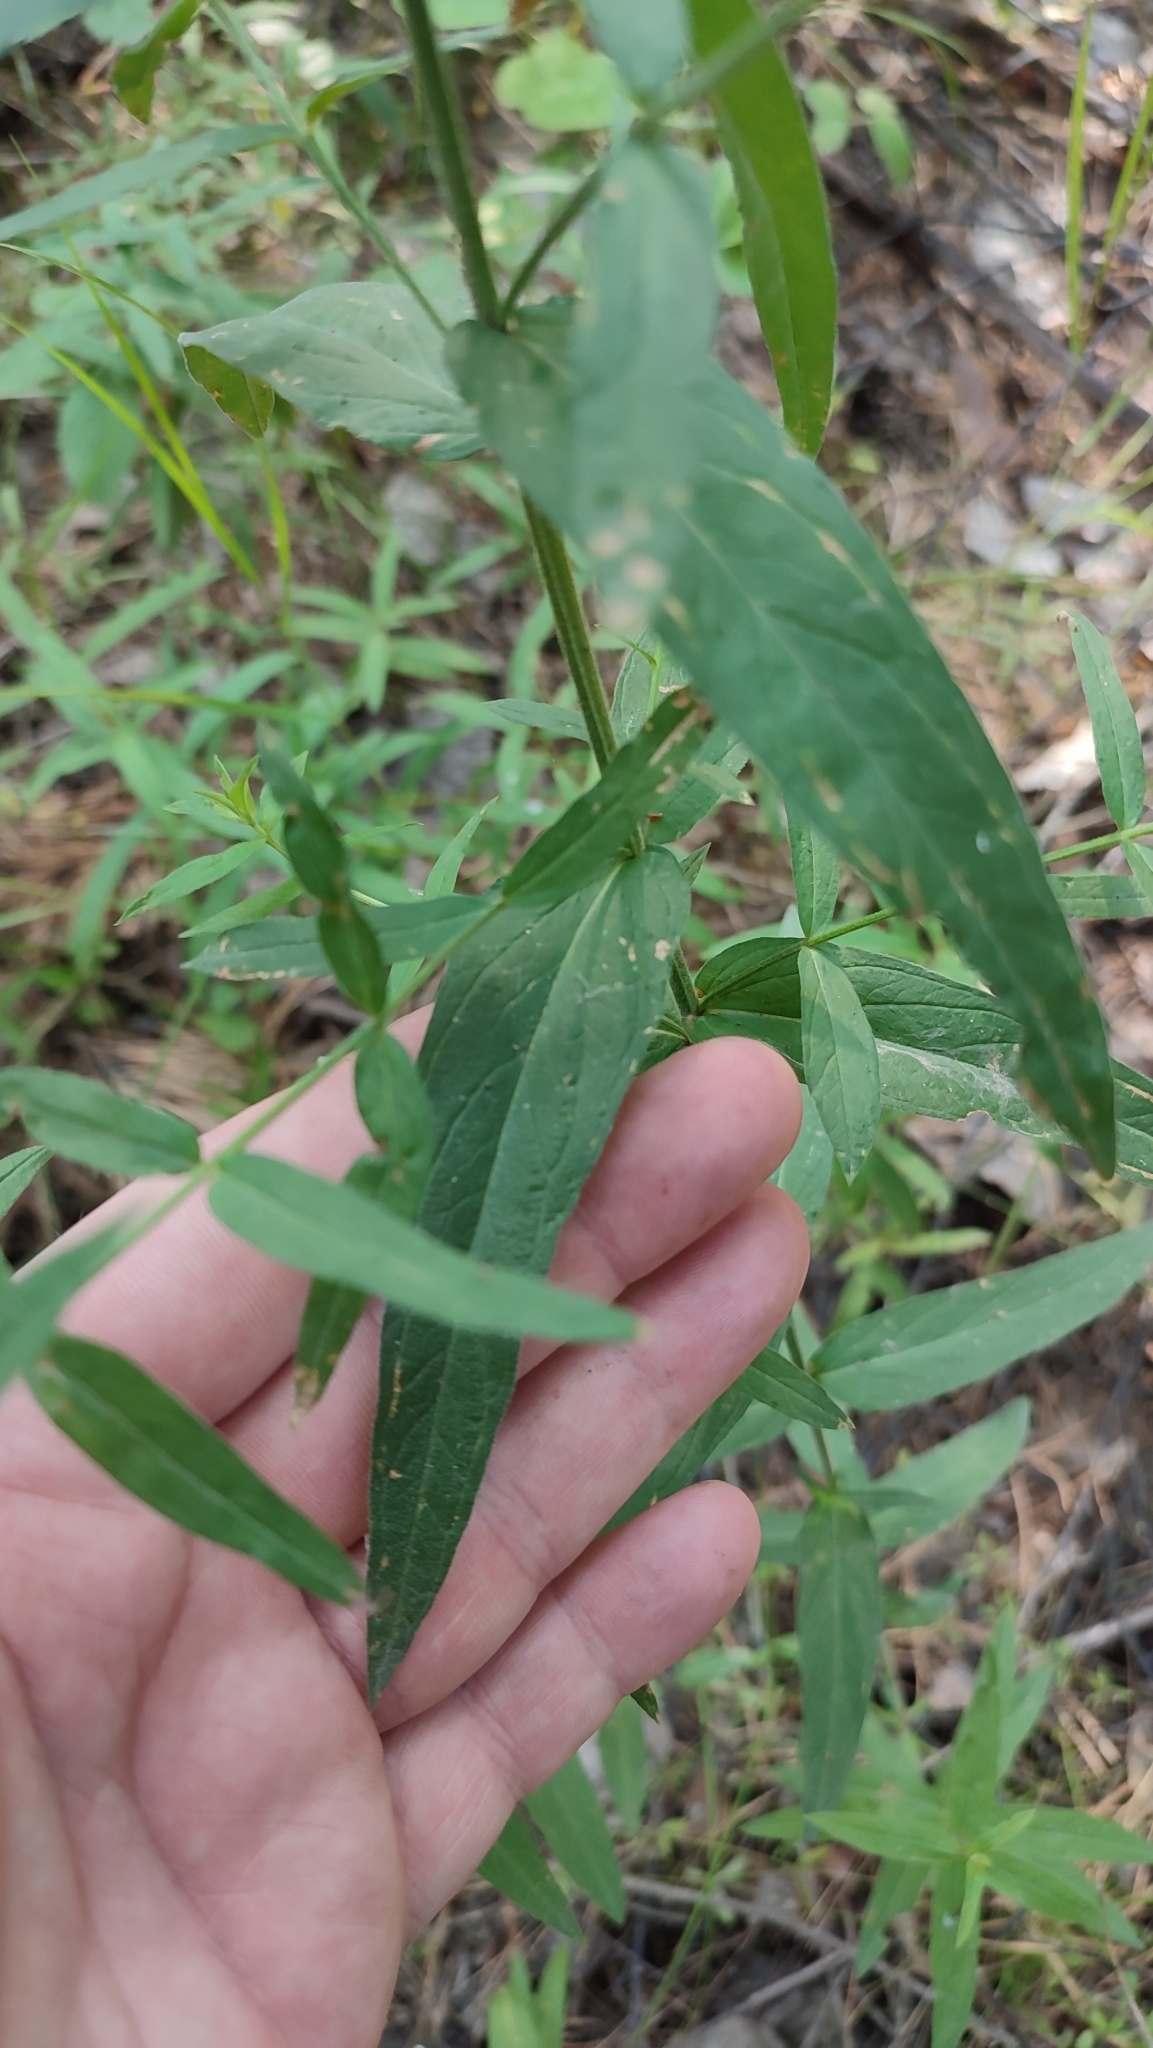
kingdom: Plantae
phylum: Tracheophyta
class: Magnoliopsida
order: Myrtales
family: Lythraceae
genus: Lythrum
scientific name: Lythrum salicaria
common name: Purple loosestrife
